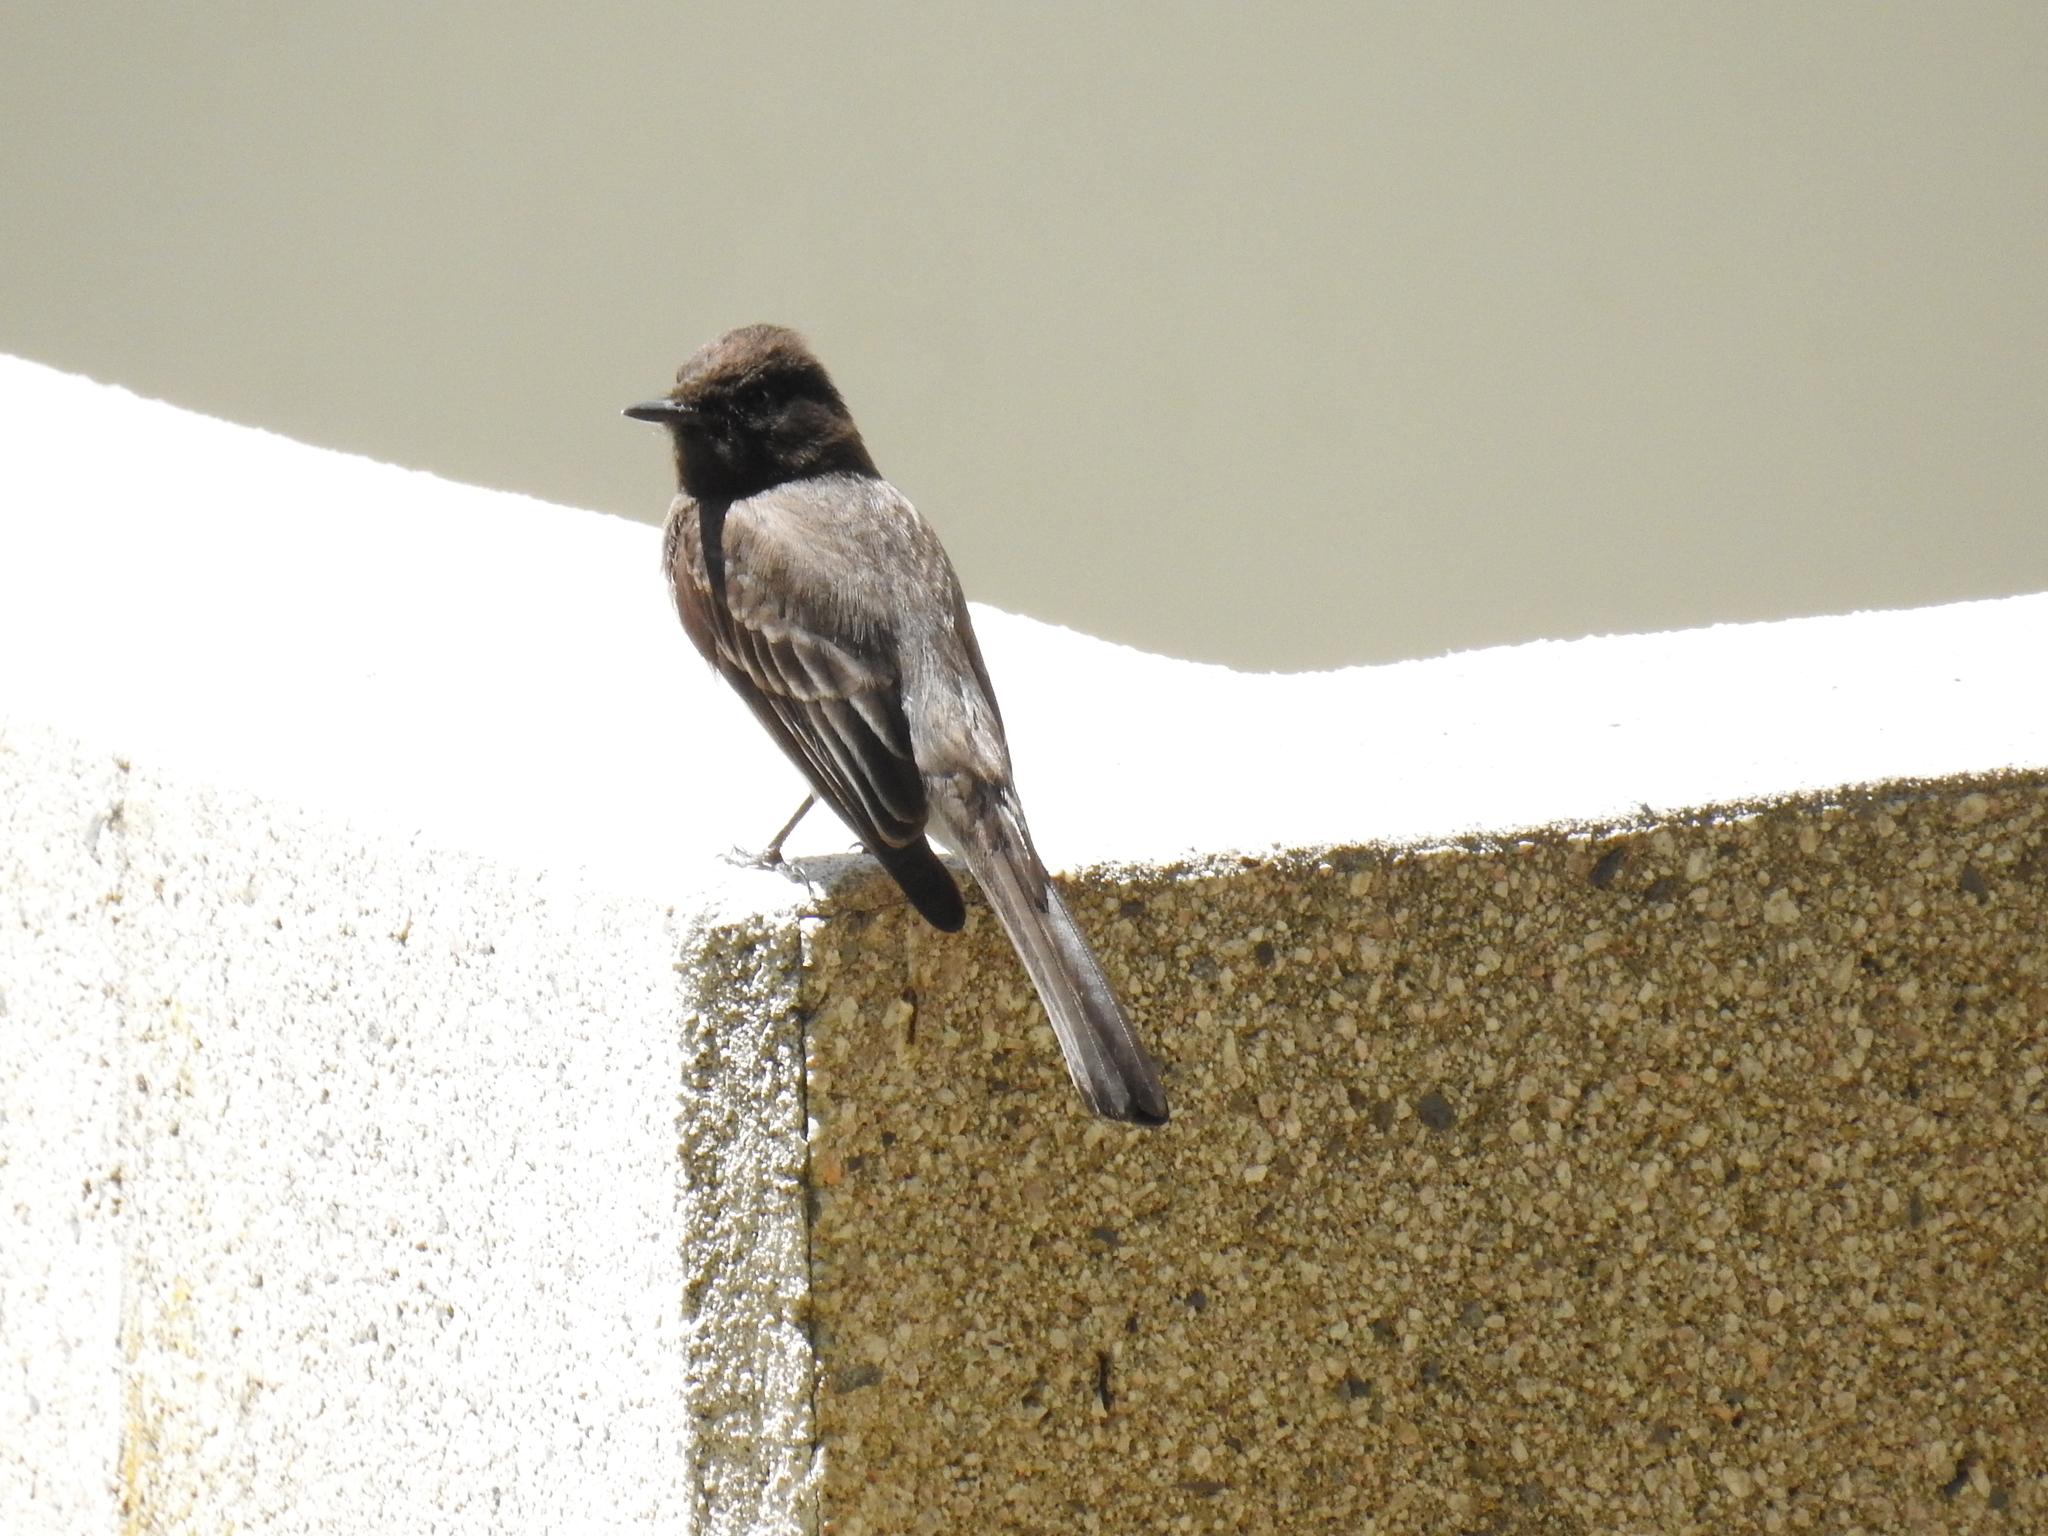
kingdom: Animalia
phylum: Chordata
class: Aves
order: Passeriformes
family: Tyrannidae
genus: Sayornis
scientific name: Sayornis nigricans
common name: Black phoebe
